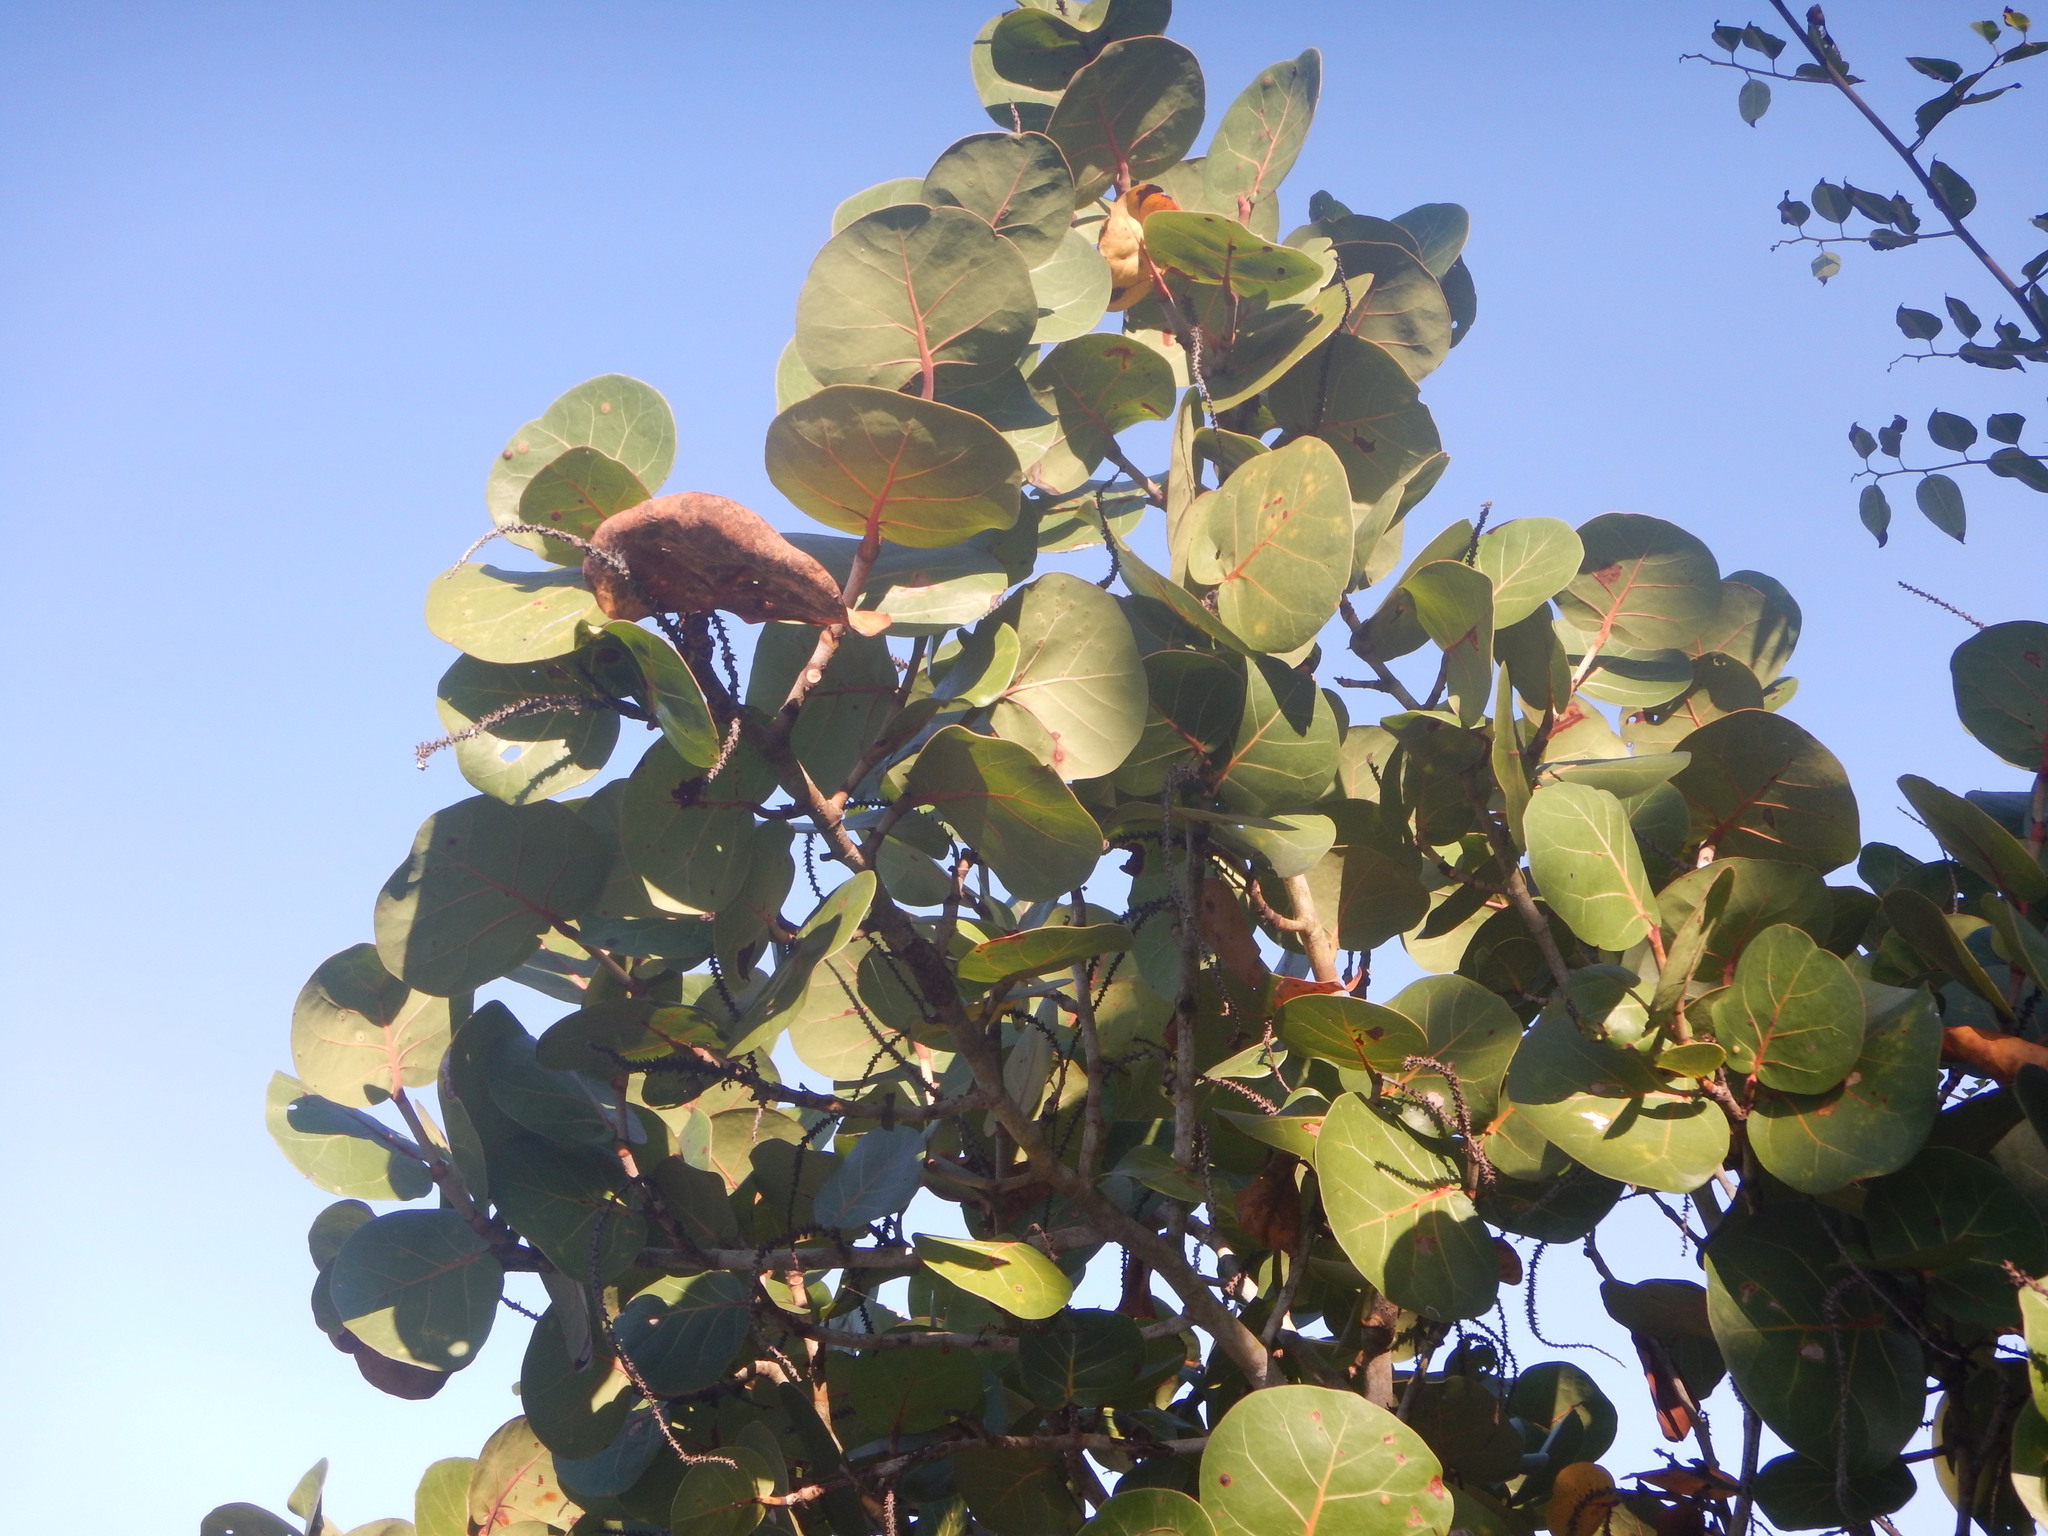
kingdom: Plantae
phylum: Tracheophyta
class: Magnoliopsida
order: Caryophyllales
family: Polygonaceae
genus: Coccoloba
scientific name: Coccoloba uvifera
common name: Seagrape
